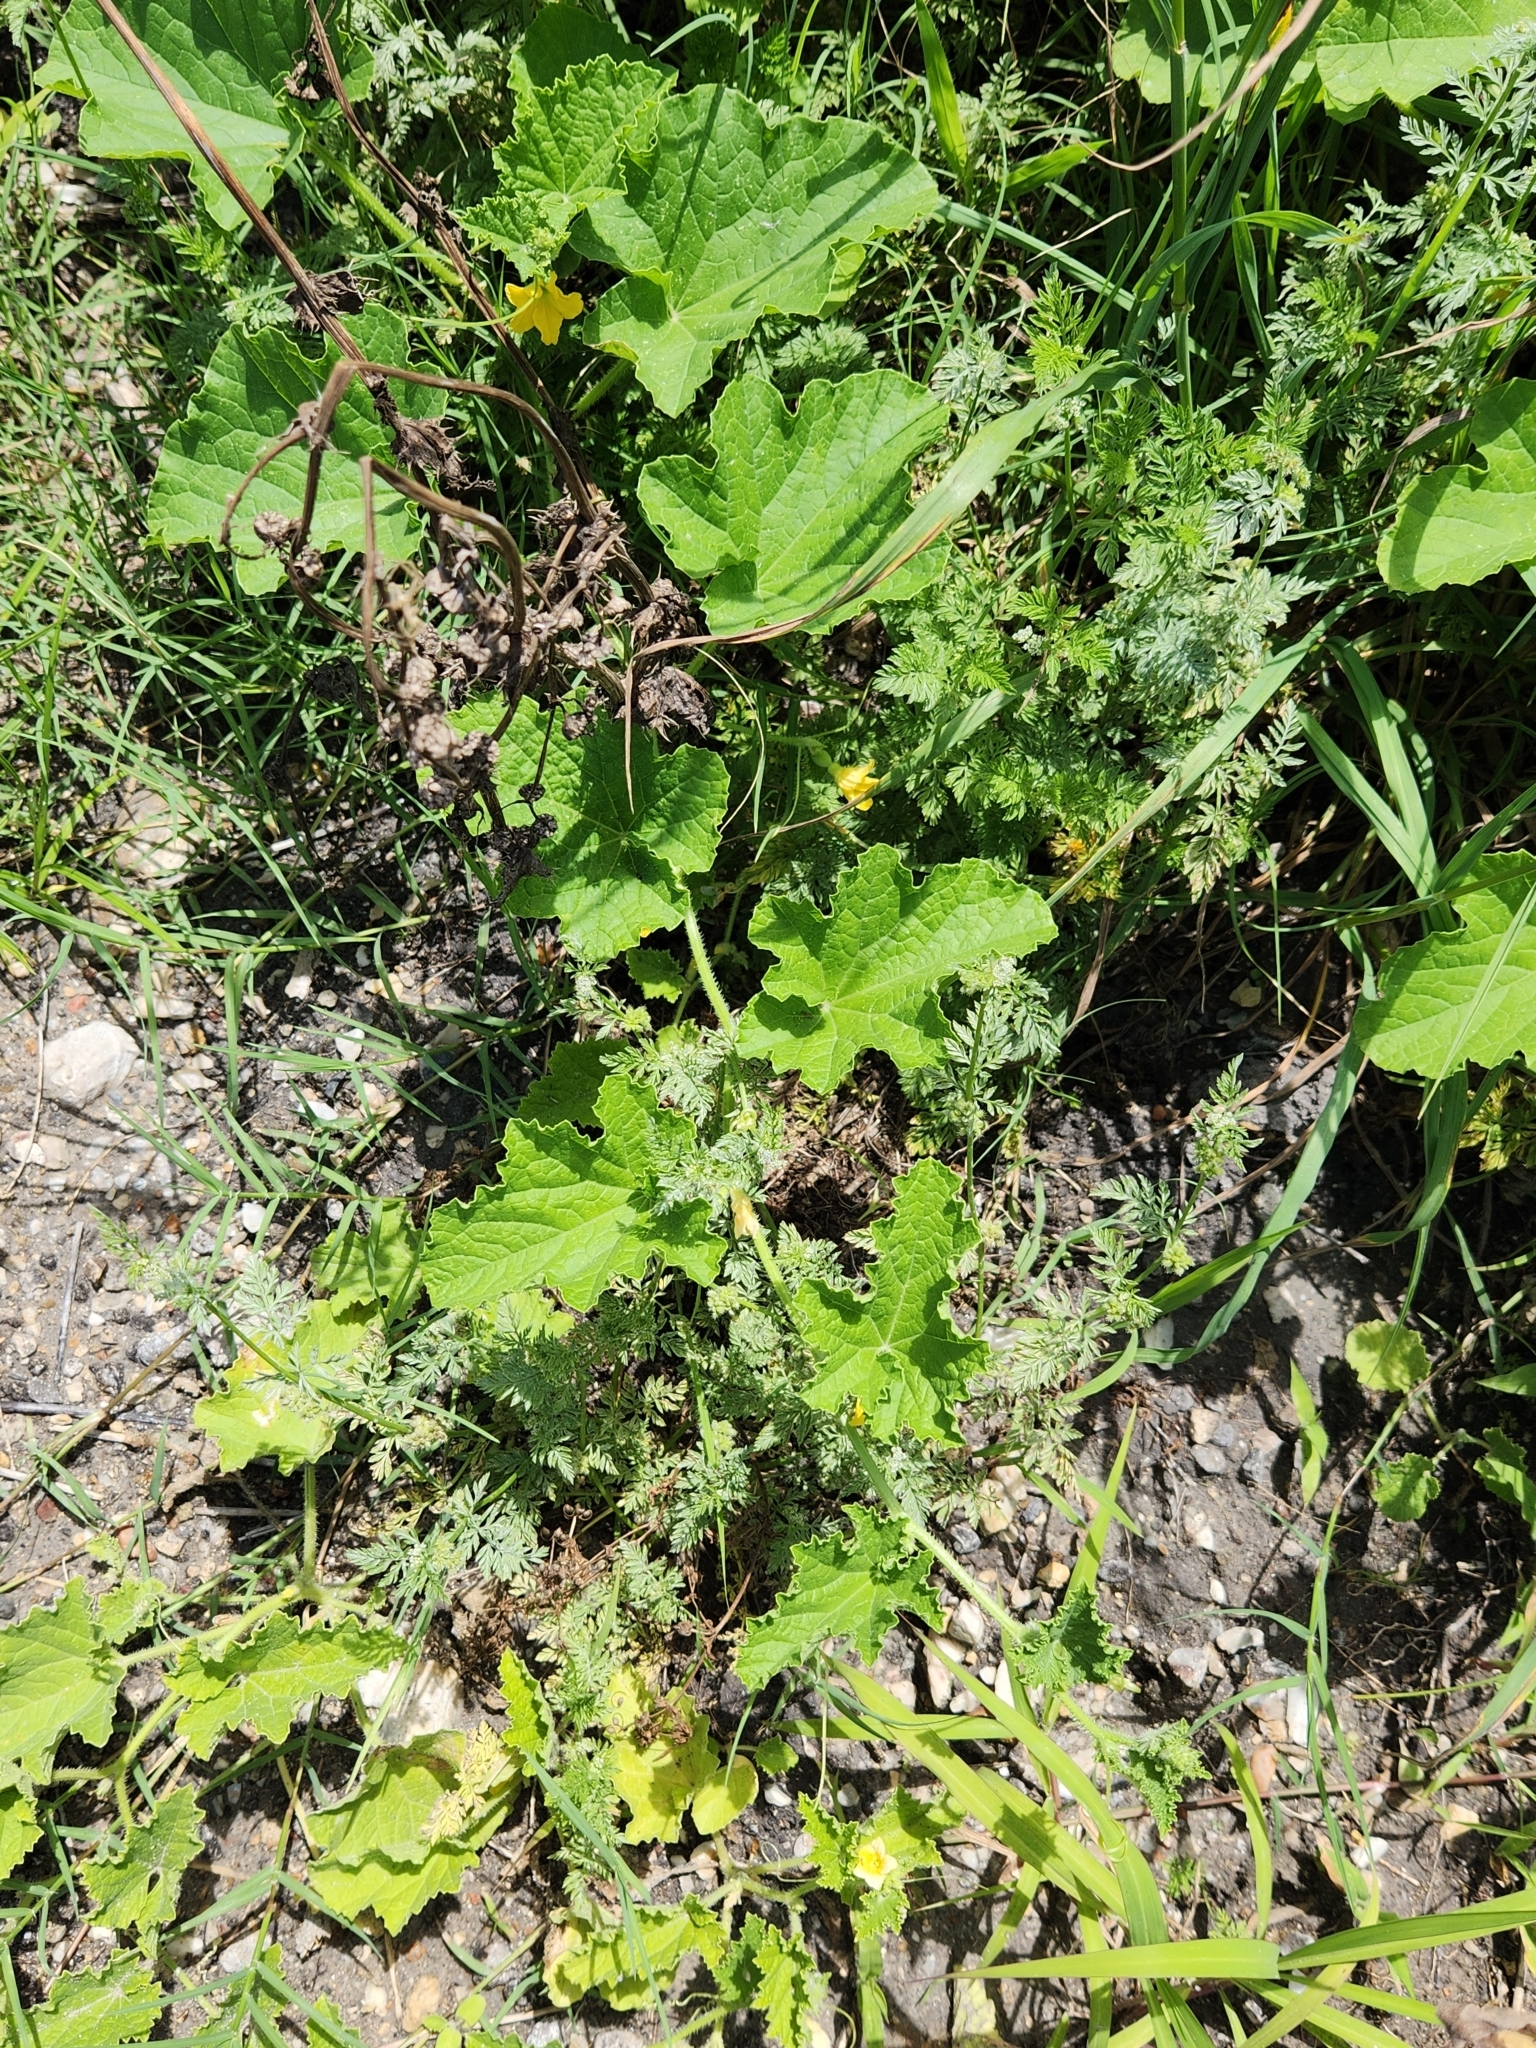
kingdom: Plantae
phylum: Tracheophyta
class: Magnoliopsida
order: Cucurbitales
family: Cucurbitaceae
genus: Cucumis
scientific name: Cucumis melo
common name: Melon
